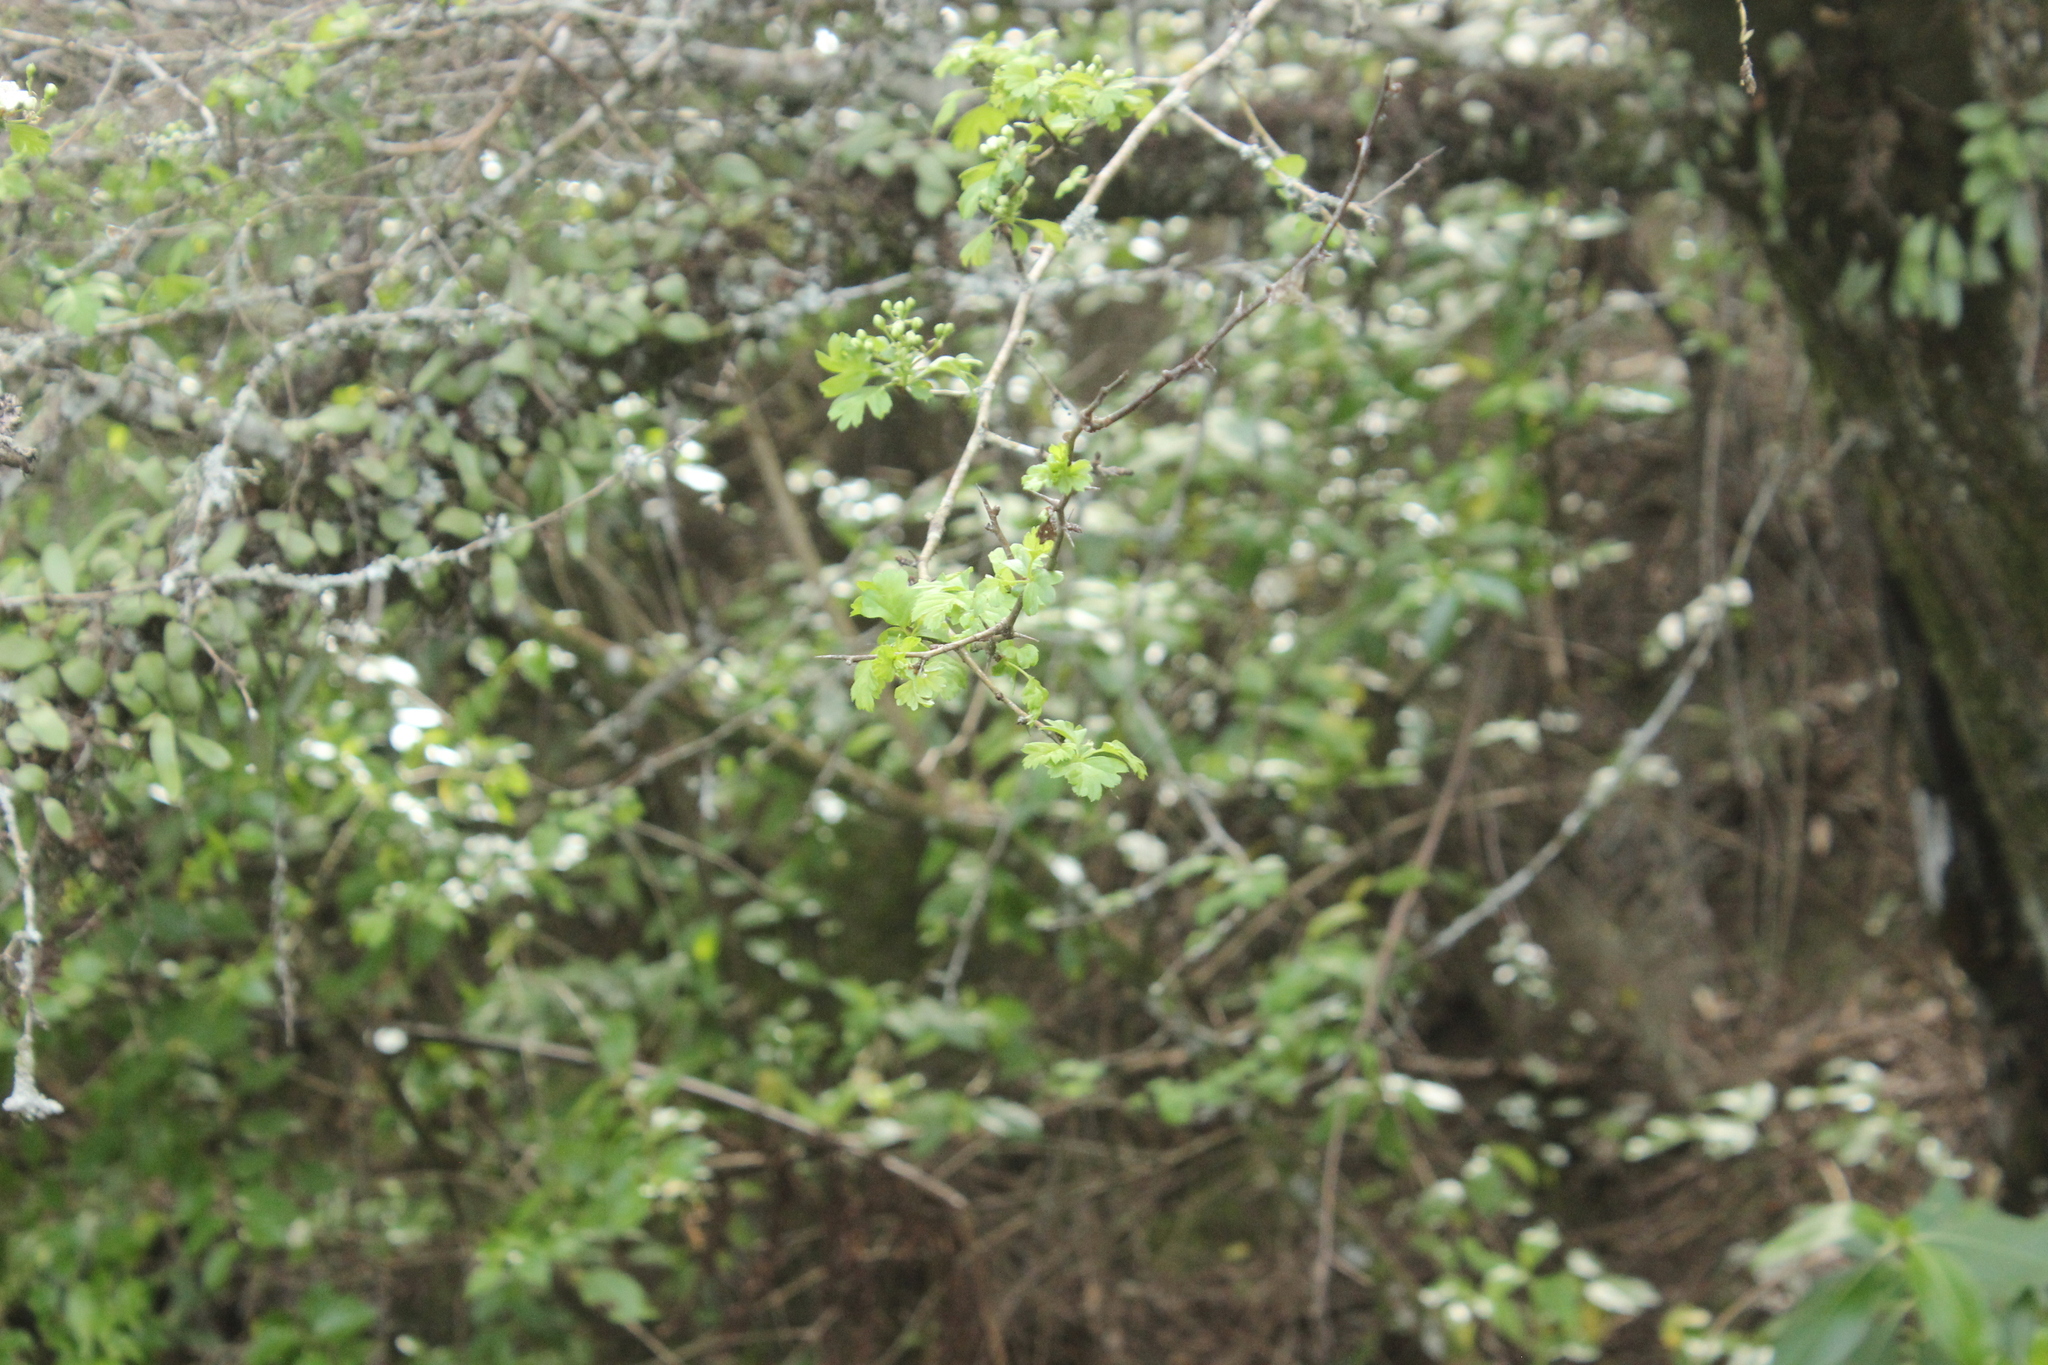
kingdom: Plantae
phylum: Tracheophyta
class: Magnoliopsida
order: Rosales
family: Rosaceae
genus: Crataegus
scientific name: Crataegus monogyna
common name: Hawthorn
